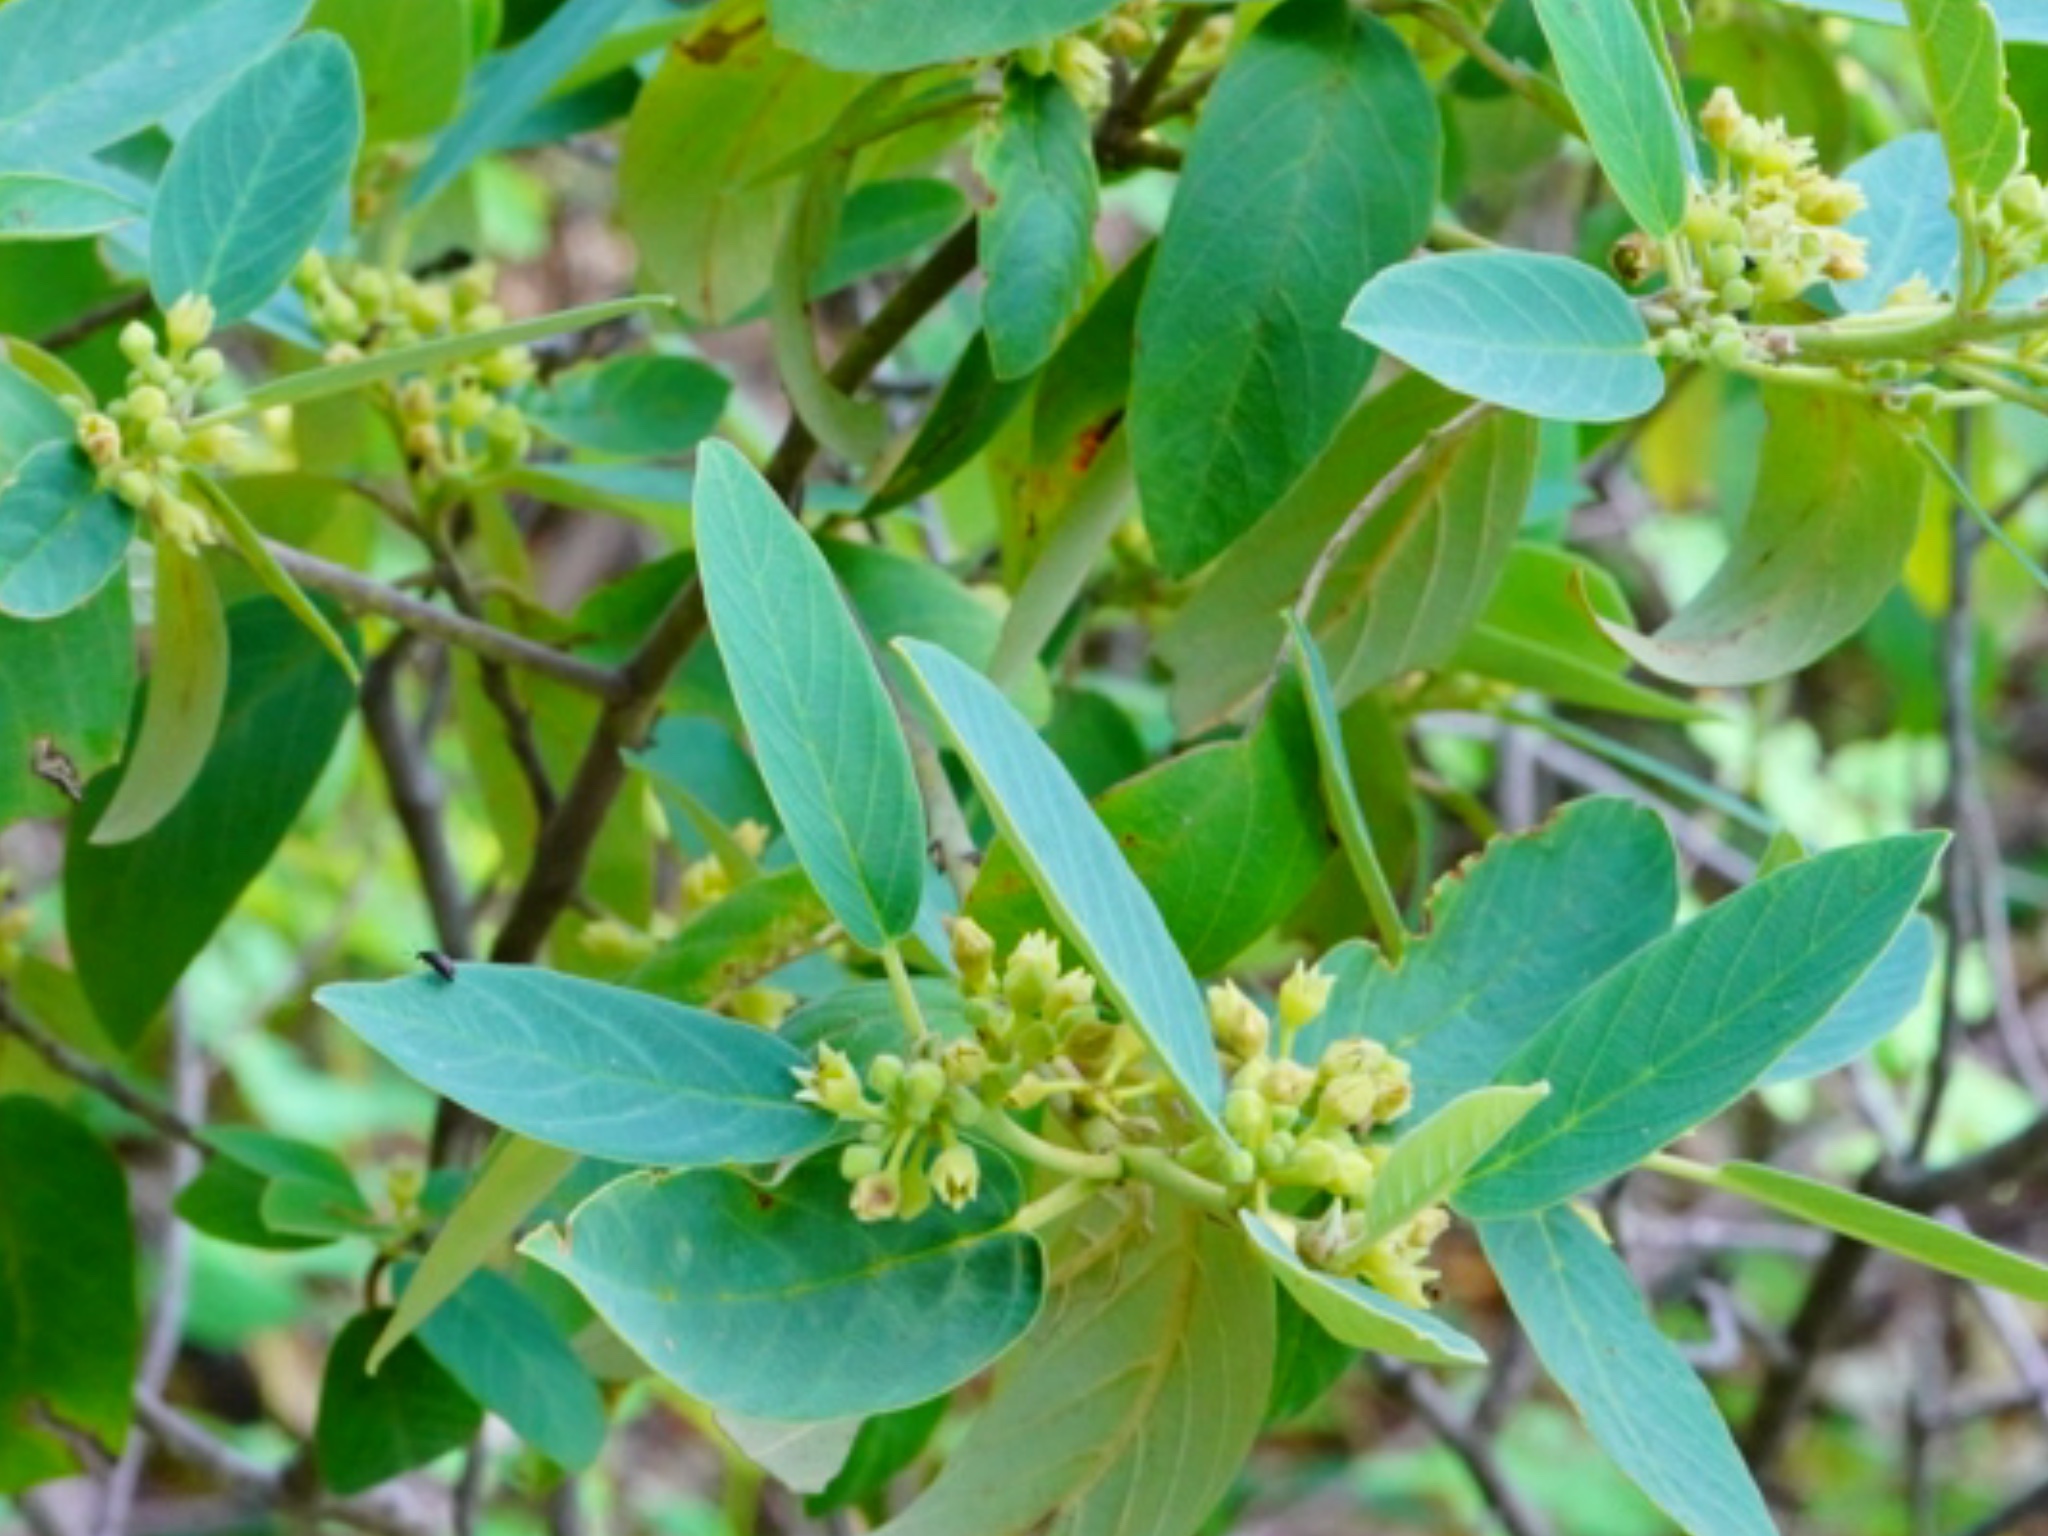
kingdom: Plantae
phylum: Tracheophyta
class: Magnoliopsida
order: Rosales
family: Rhamnaceae
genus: Frangula
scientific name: Frangula californica
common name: California buckthorn
